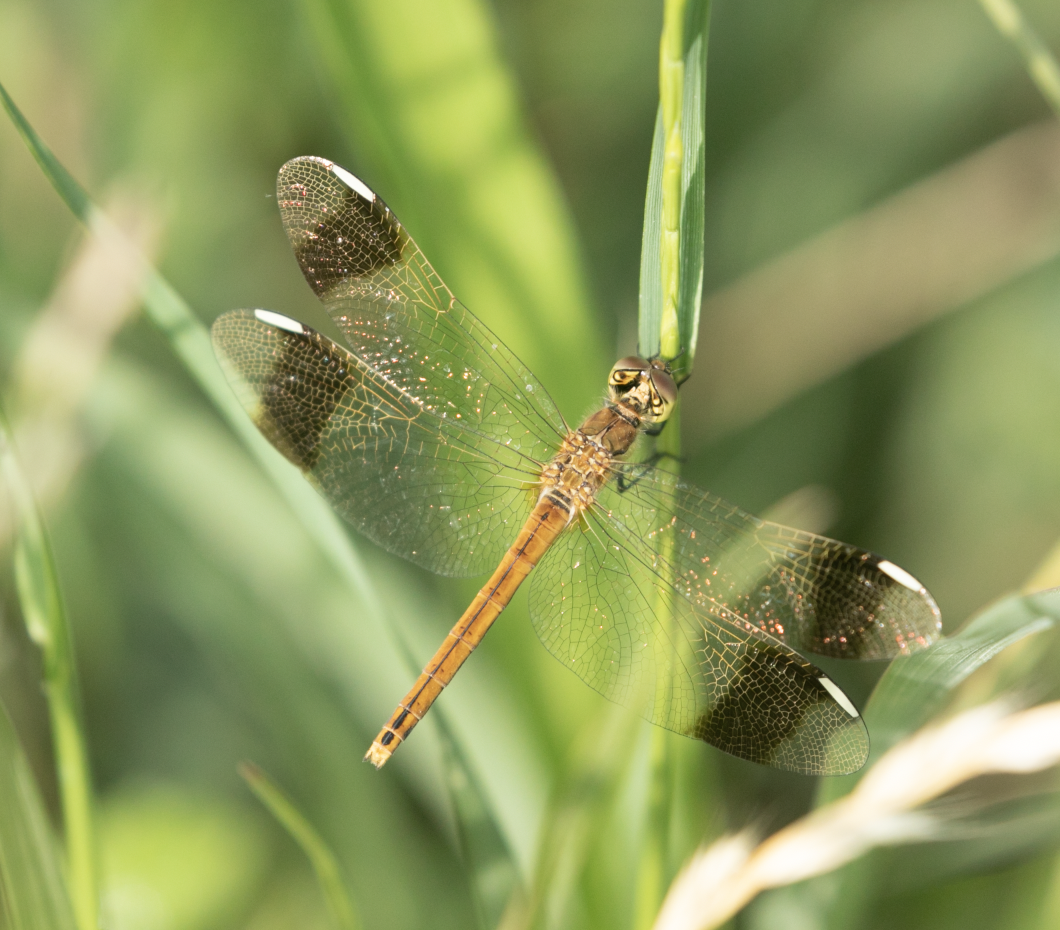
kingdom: Animalia
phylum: Arthropoda
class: Insecta
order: Odonata
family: Libellulidae
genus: Sympetrum
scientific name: Sympetrum pedemontanum
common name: Banded darter
